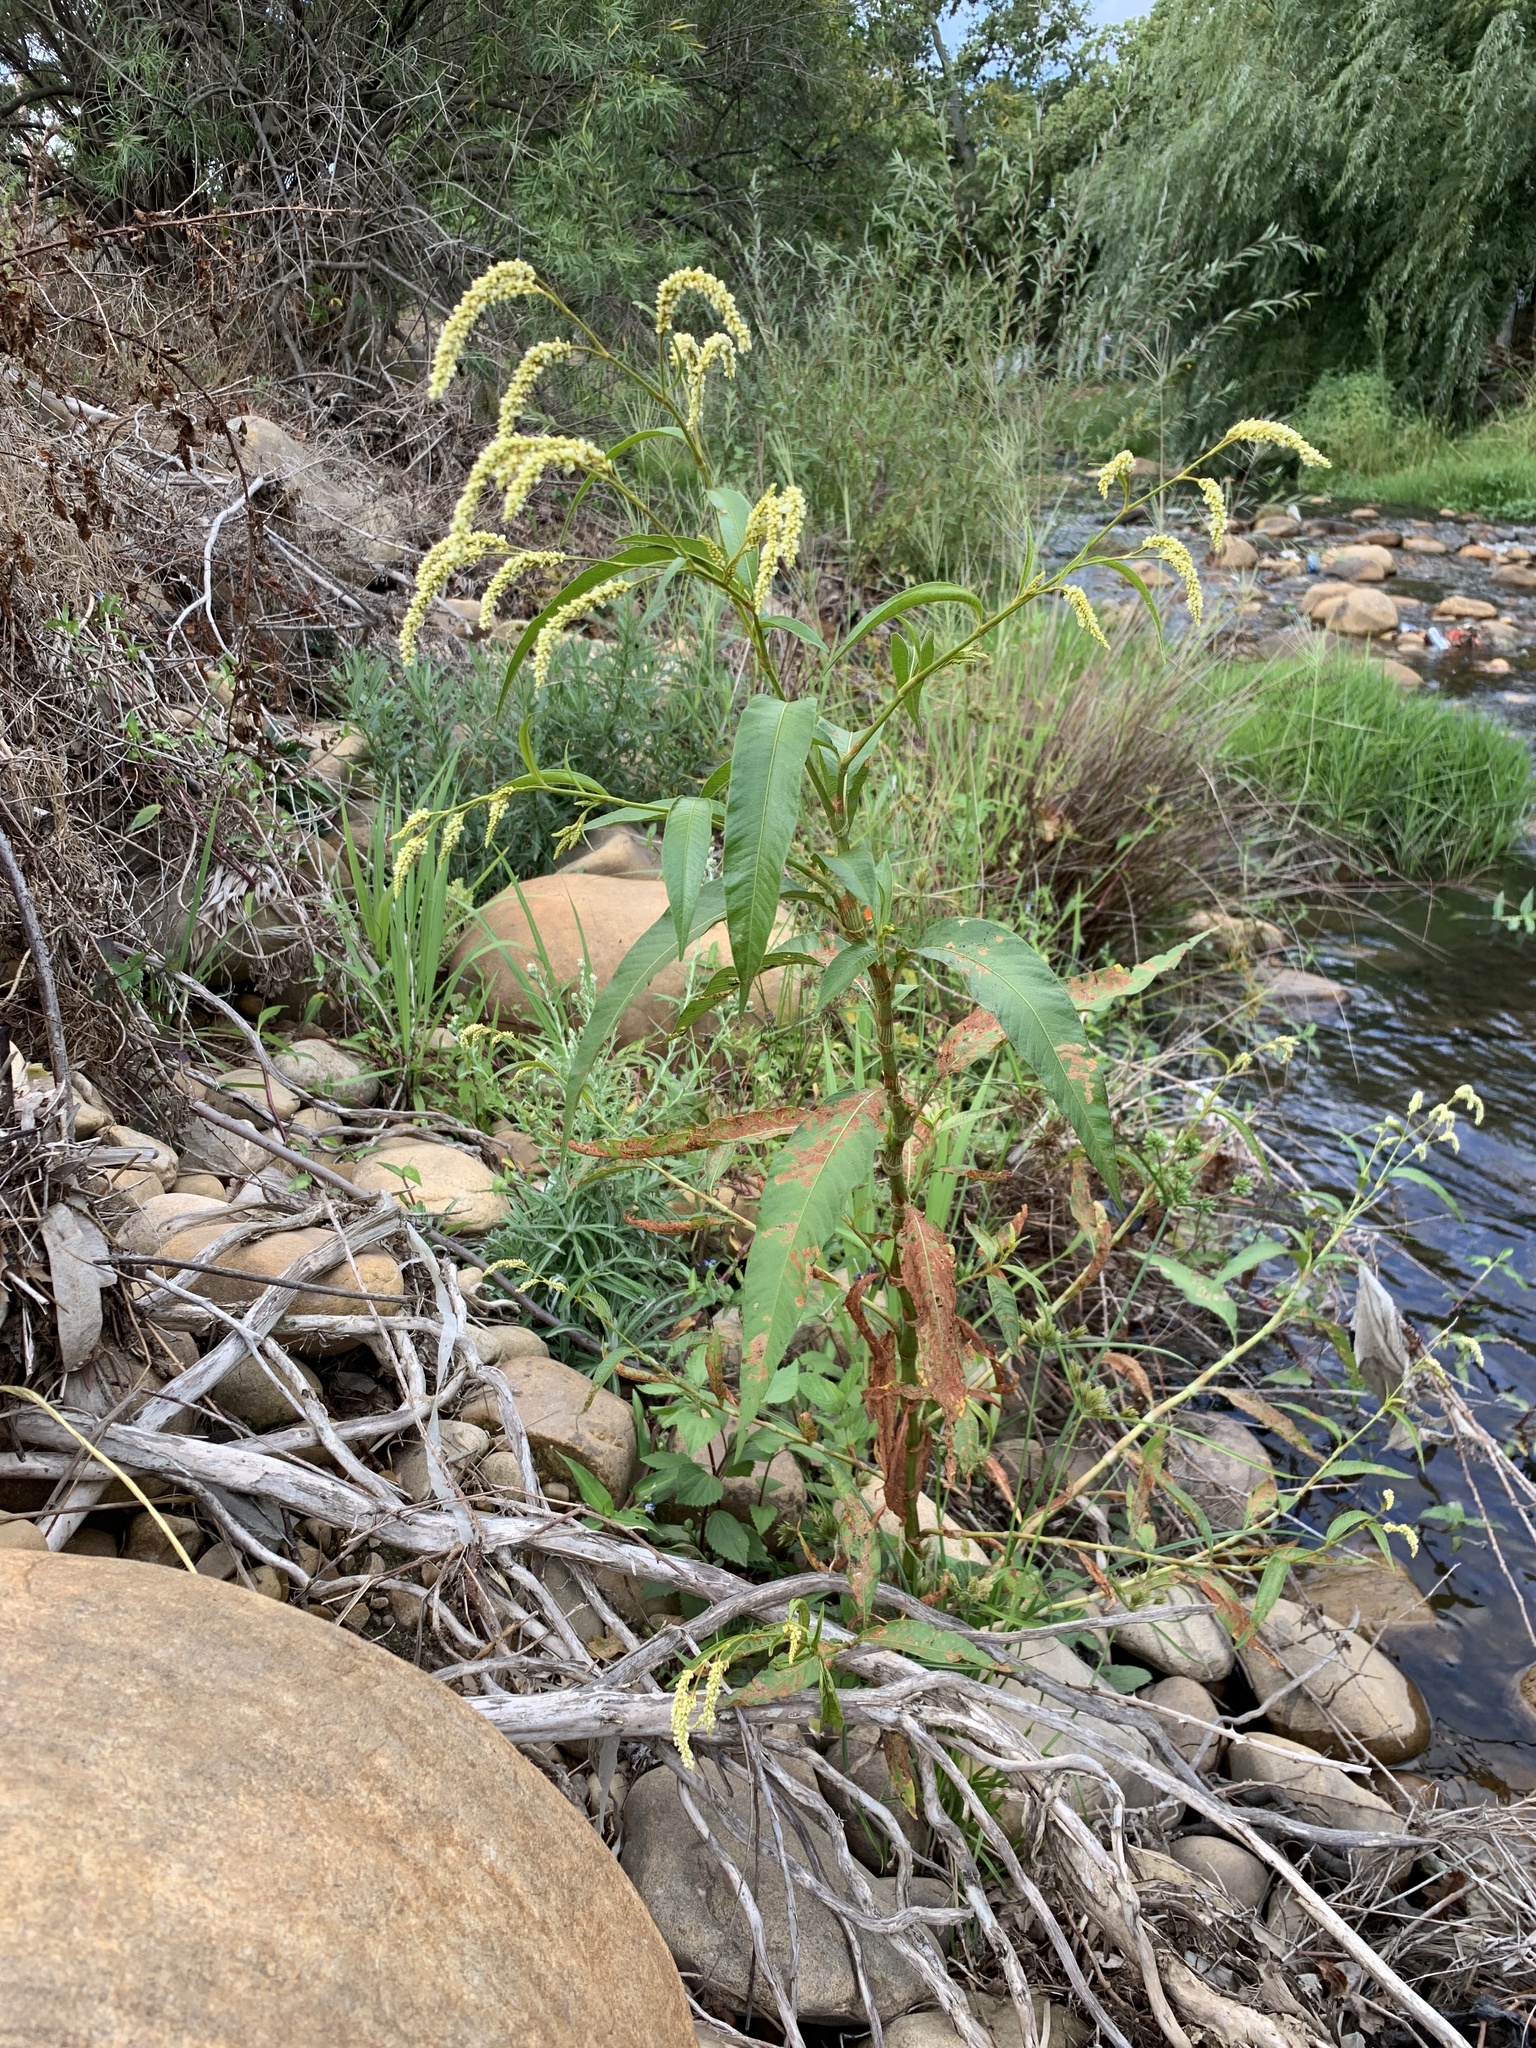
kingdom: Plantae
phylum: Tracheophyta
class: Magnoliopsida
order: Caryophyllales
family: Polygonaceae
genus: Persicaria
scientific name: Persicaria lapathifolia
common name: Curlytop knotweed
